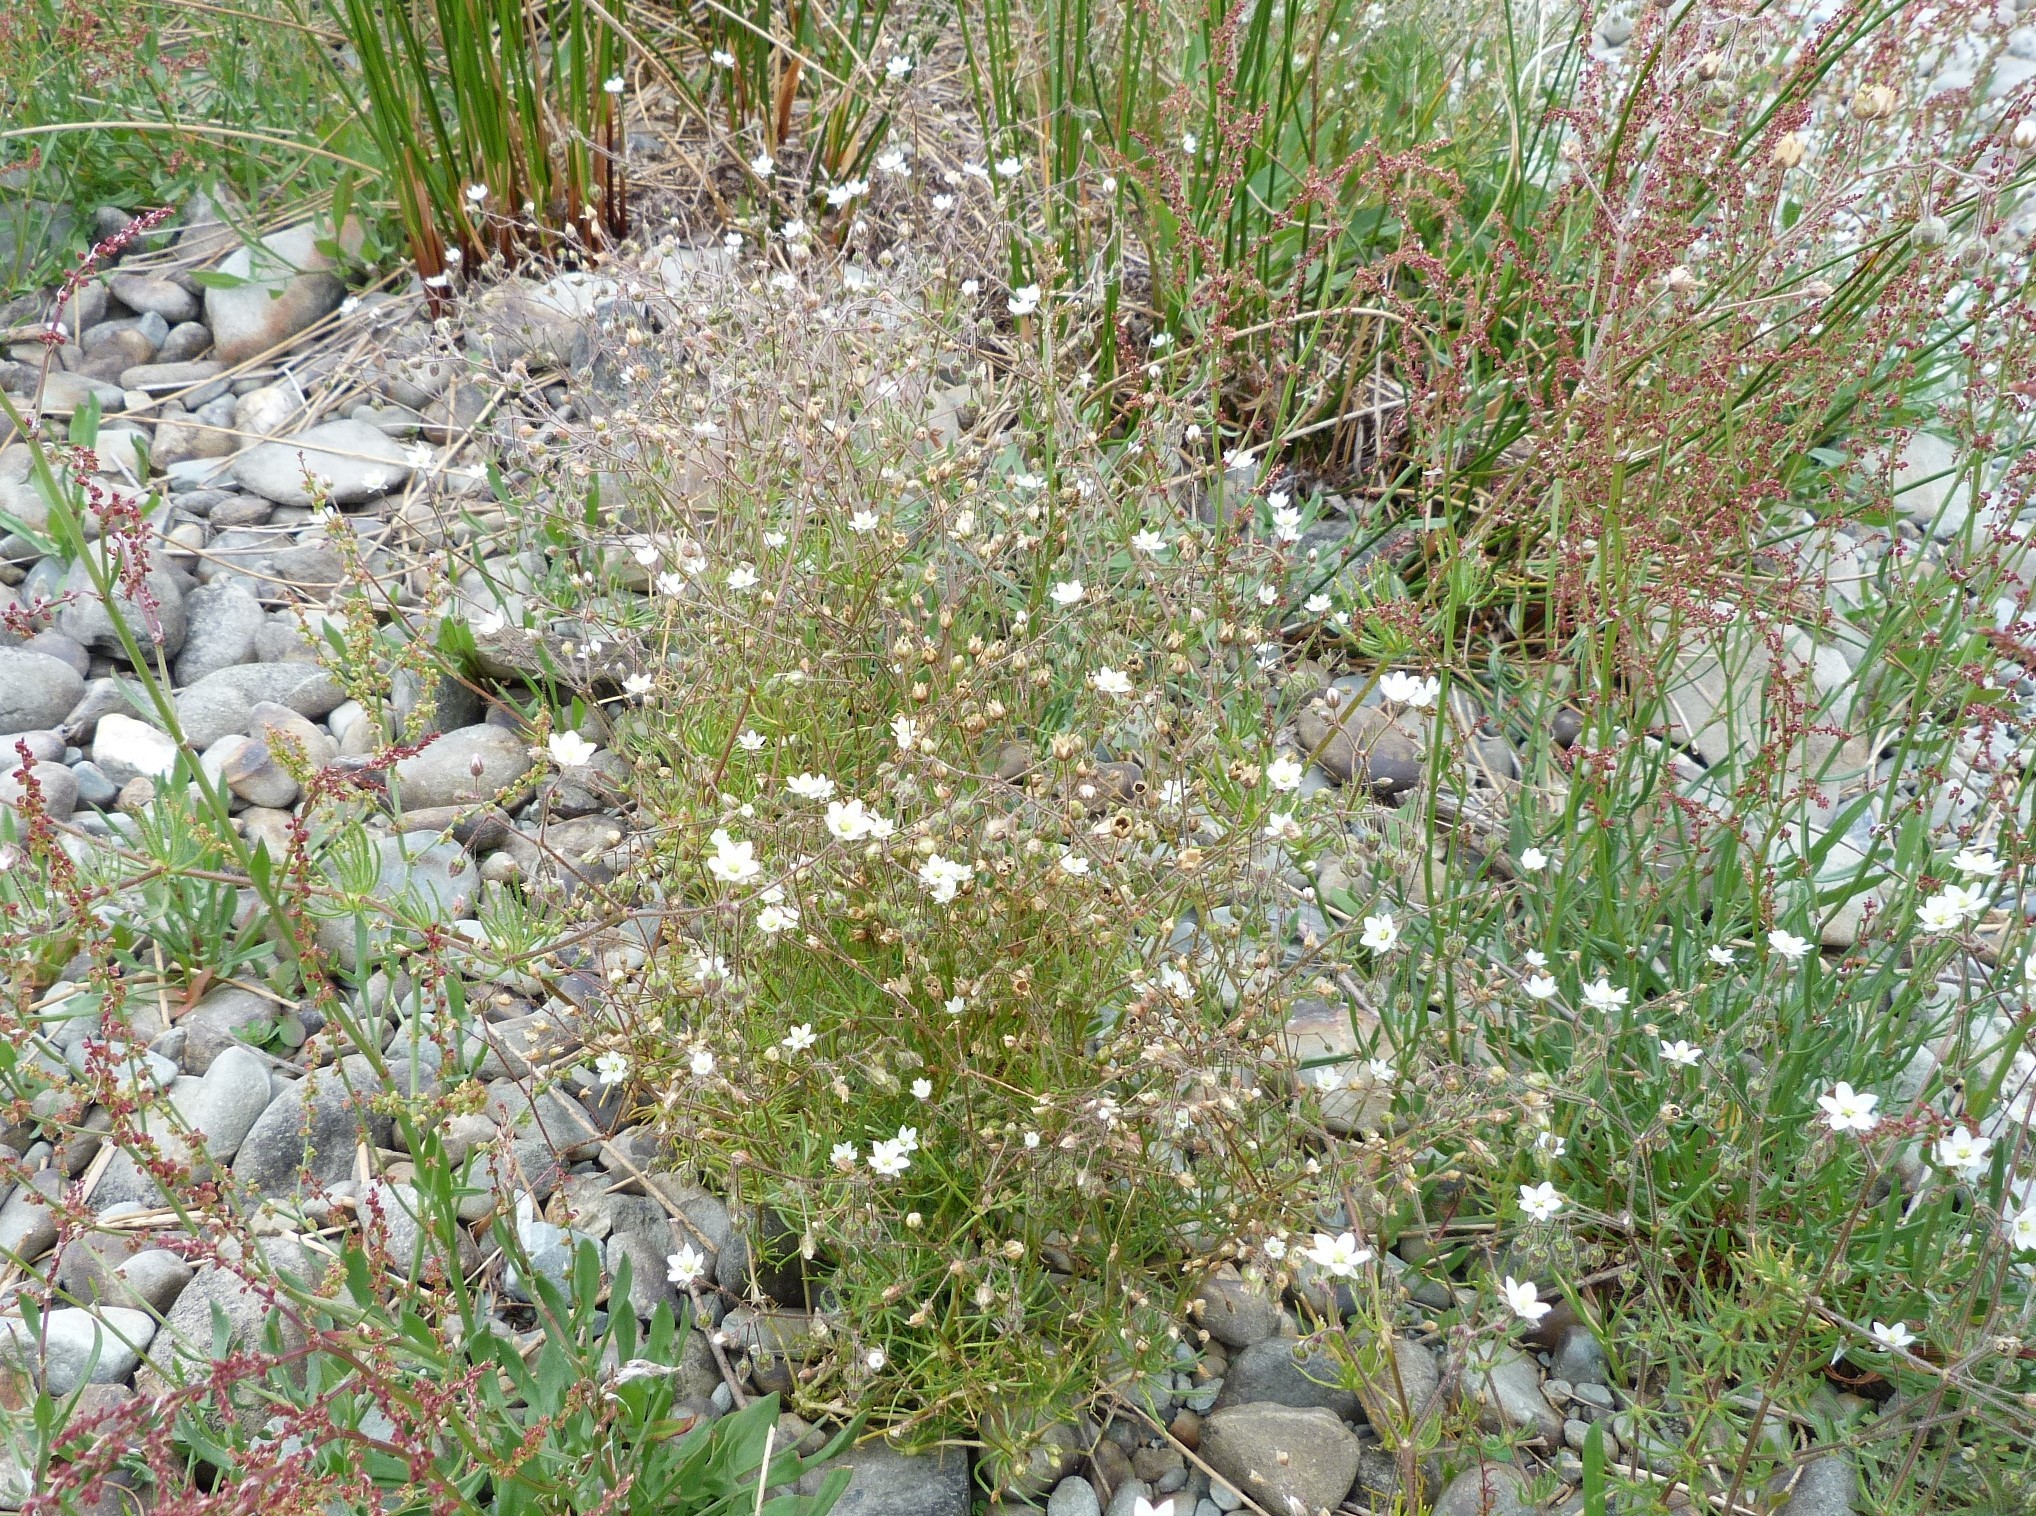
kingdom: Plantae
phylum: Tracheophyta
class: Magnoliopsida
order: Caryophyllales
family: Caryophyllaceae
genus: Spergula
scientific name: Spergula arvensis
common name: Corn spurrey
